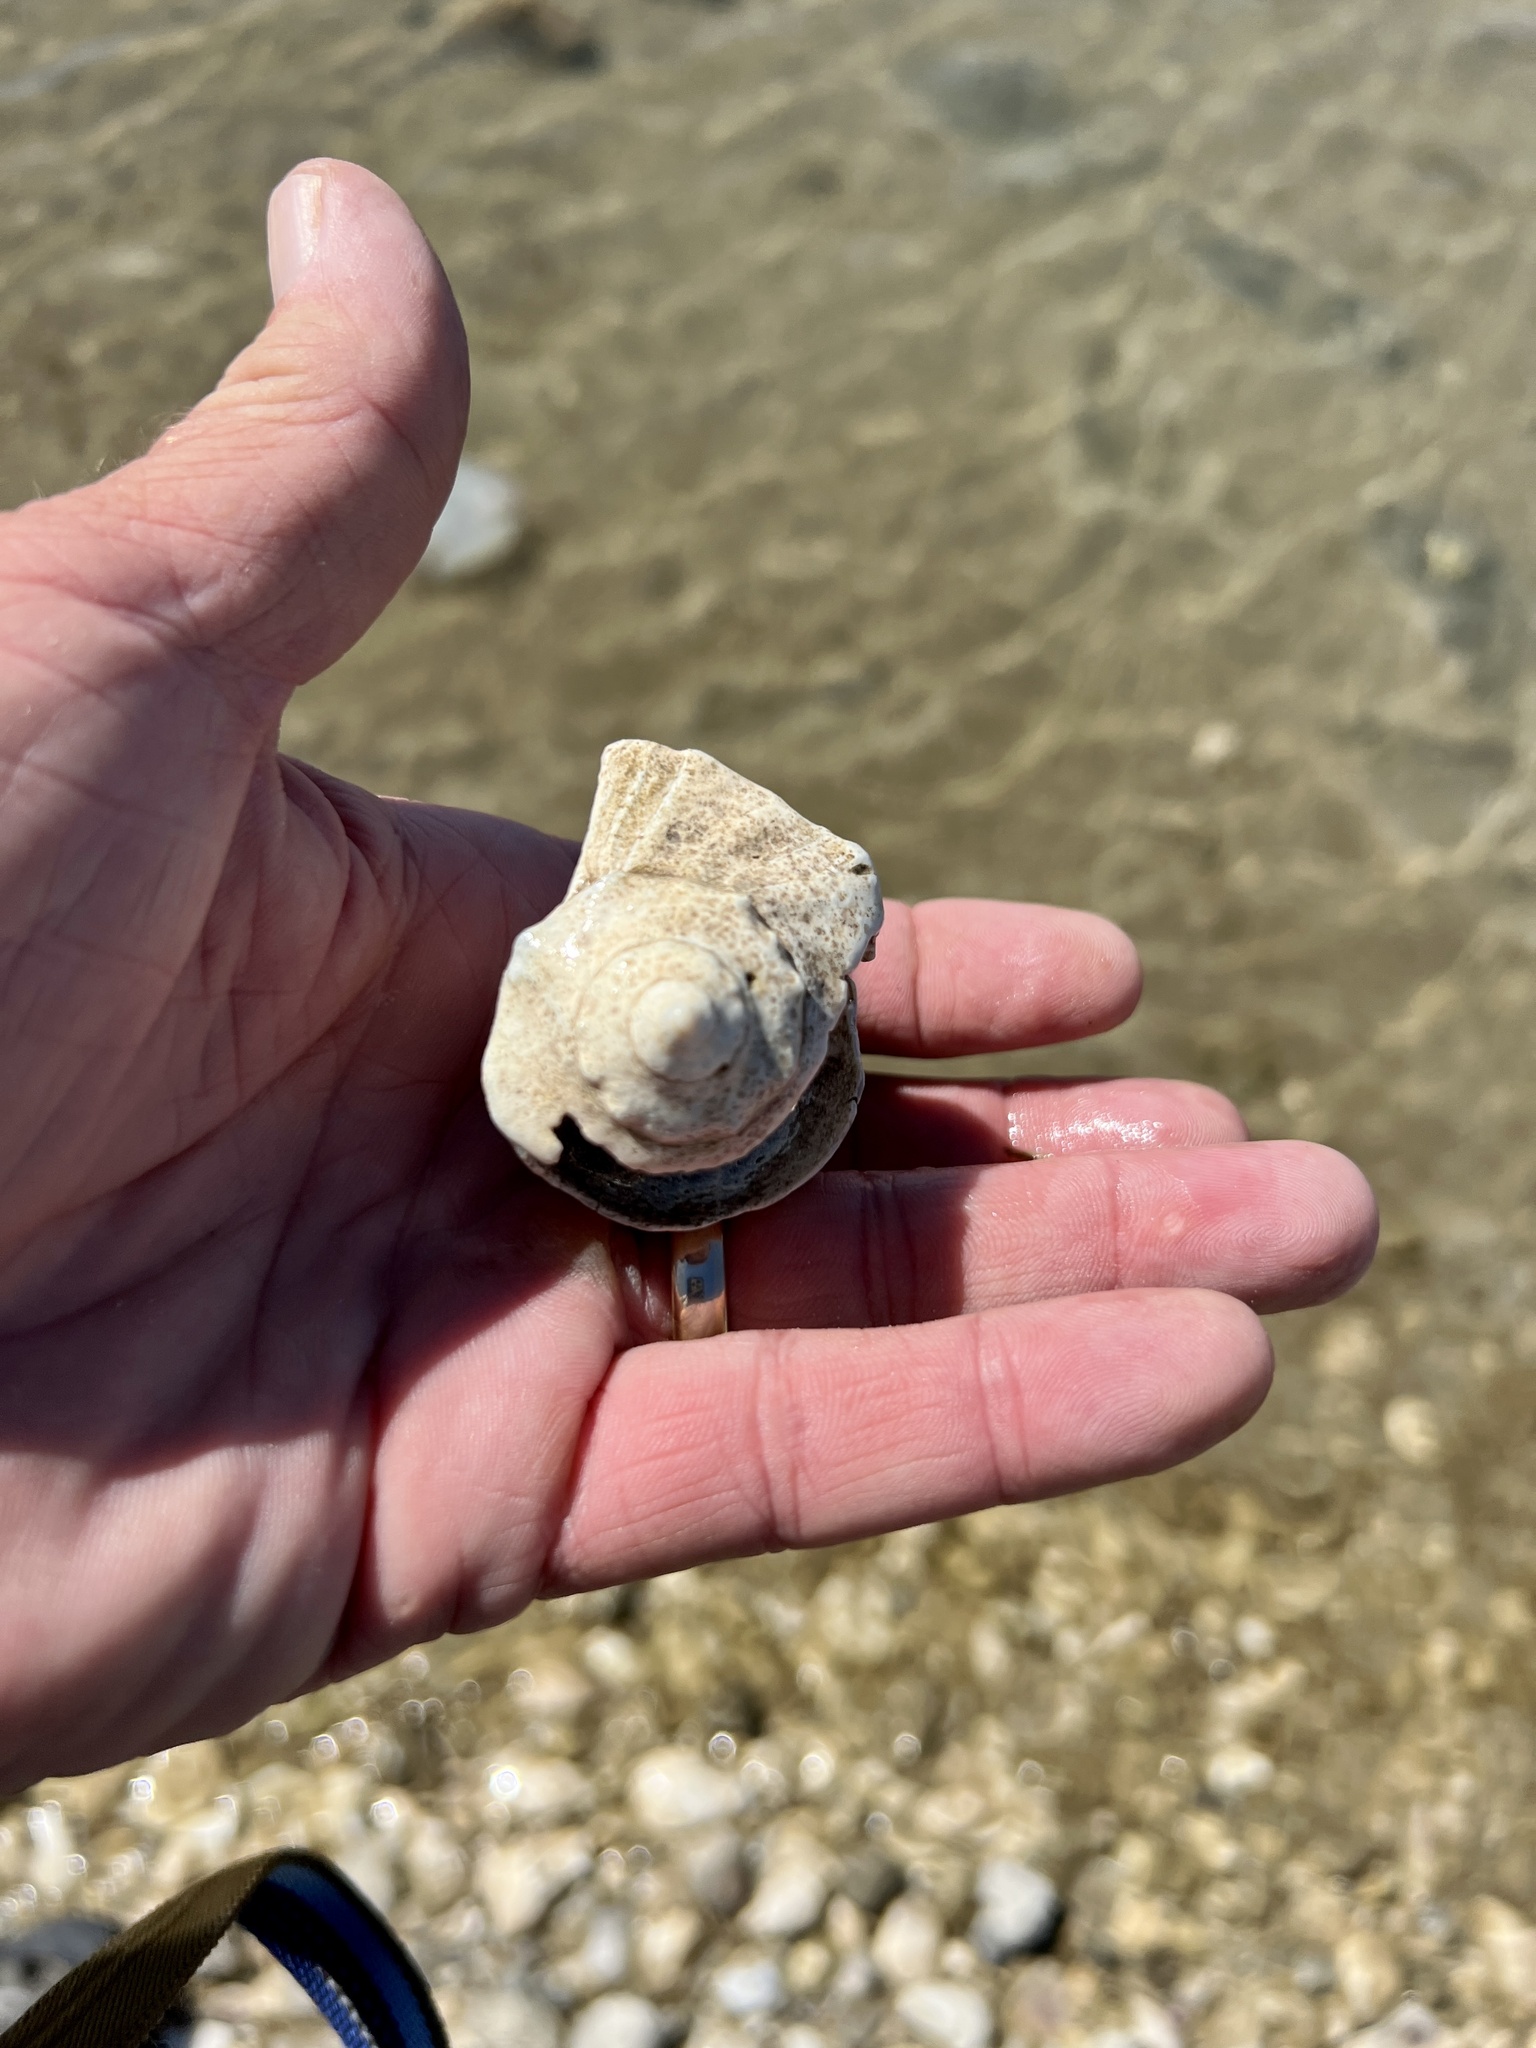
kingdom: Animalia
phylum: Mollusca
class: Gastropoda
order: Neogastropoda
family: Busyconidae
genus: Sinistrofulgur
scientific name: Sinistrofulgur pulleyi
